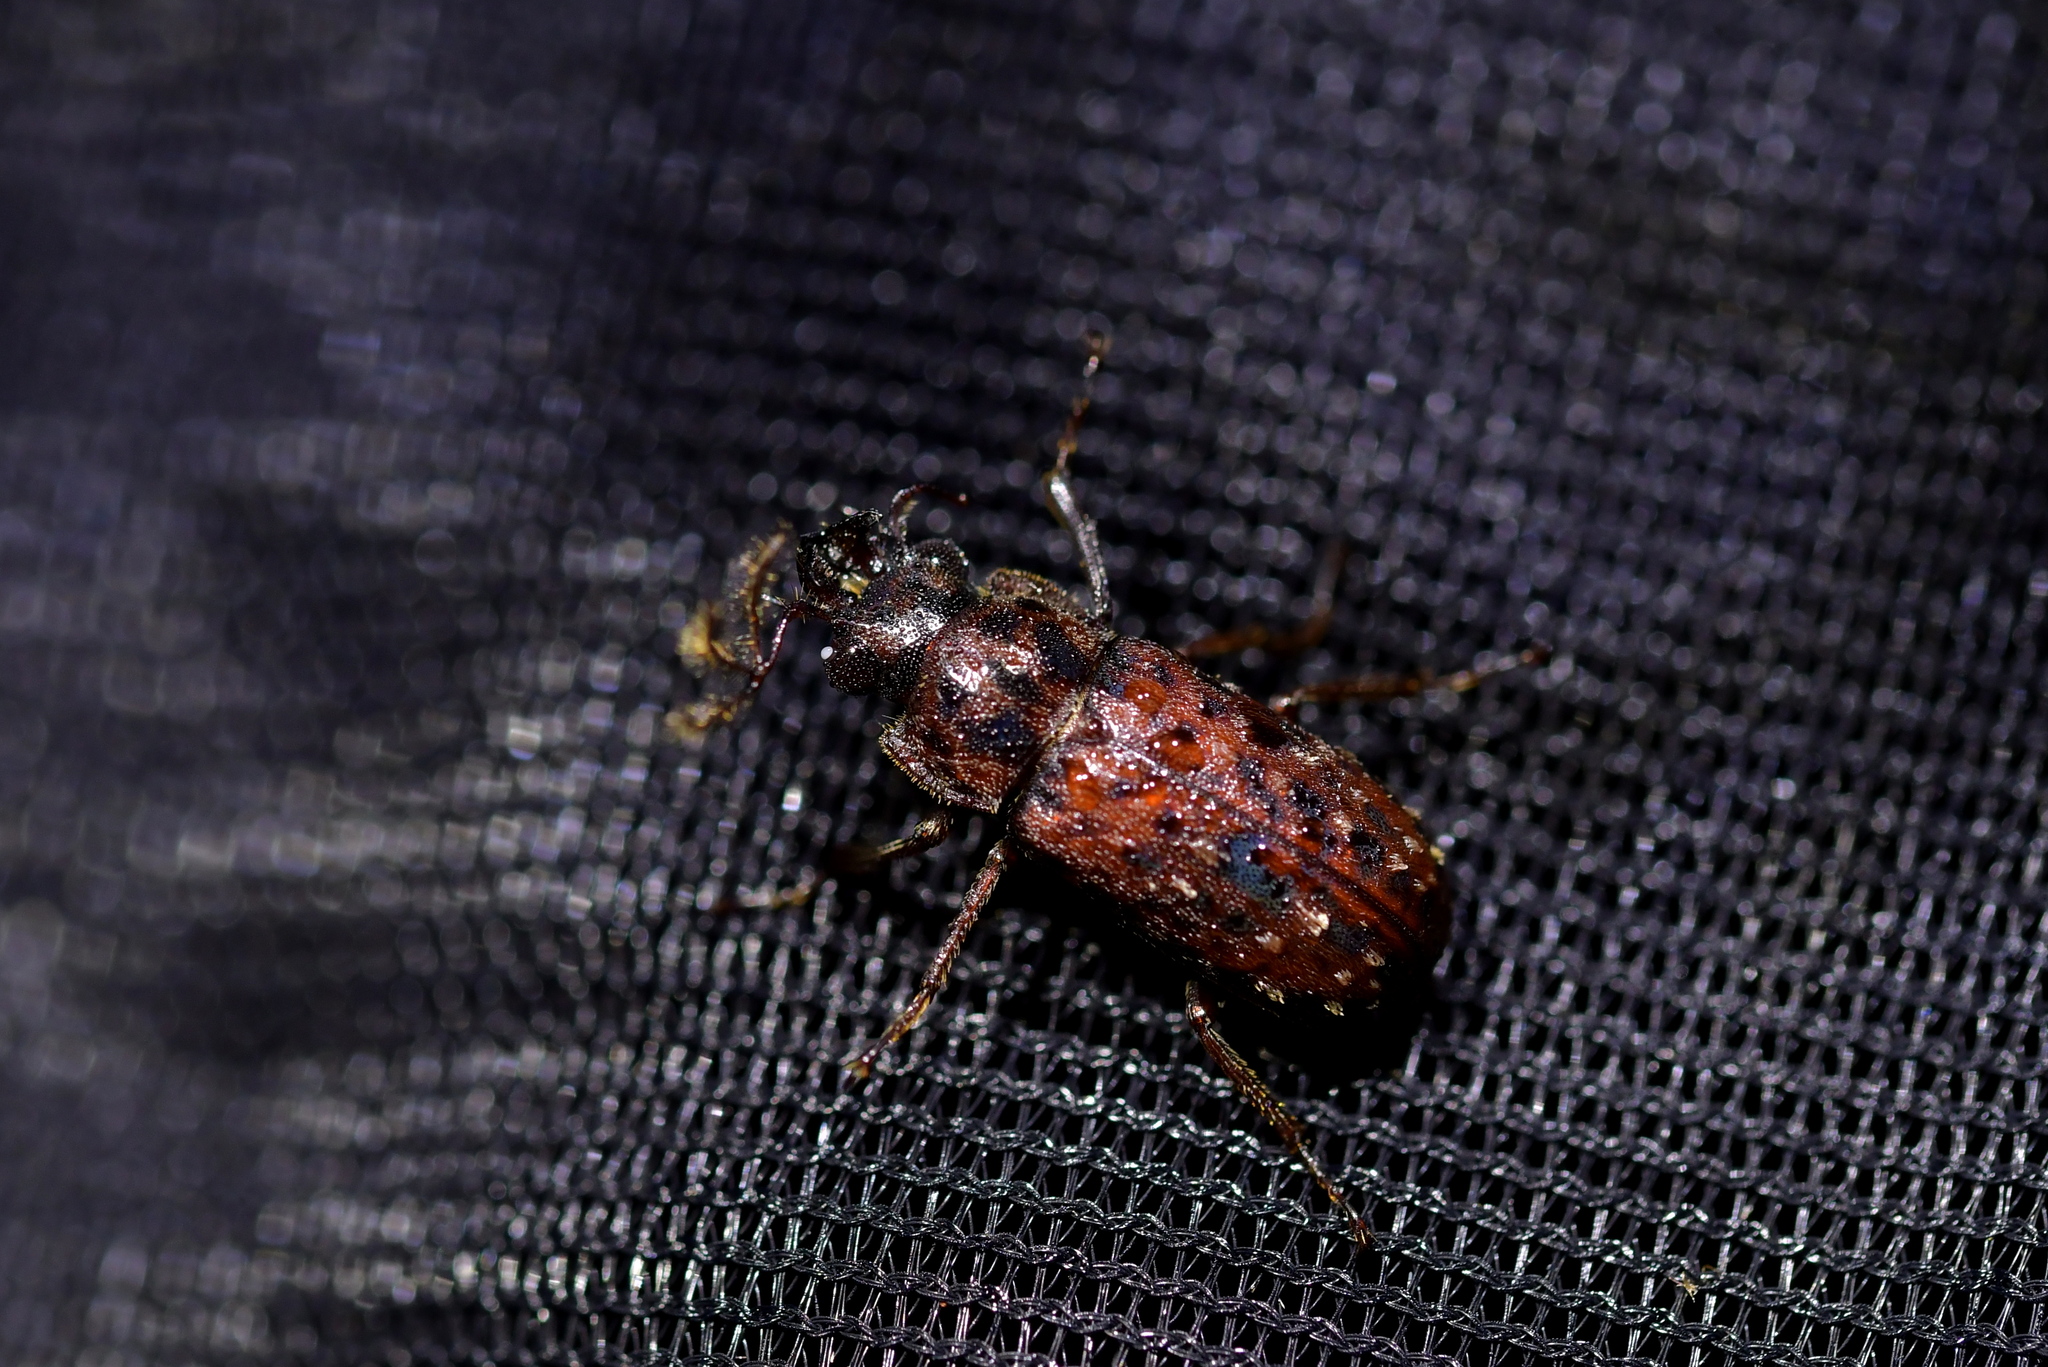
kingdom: Animalia
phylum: Arthropoda
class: Insecta
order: Coleoptera
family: Lucanidae
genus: Mitophyllus
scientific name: Mitophyllus irroratus
